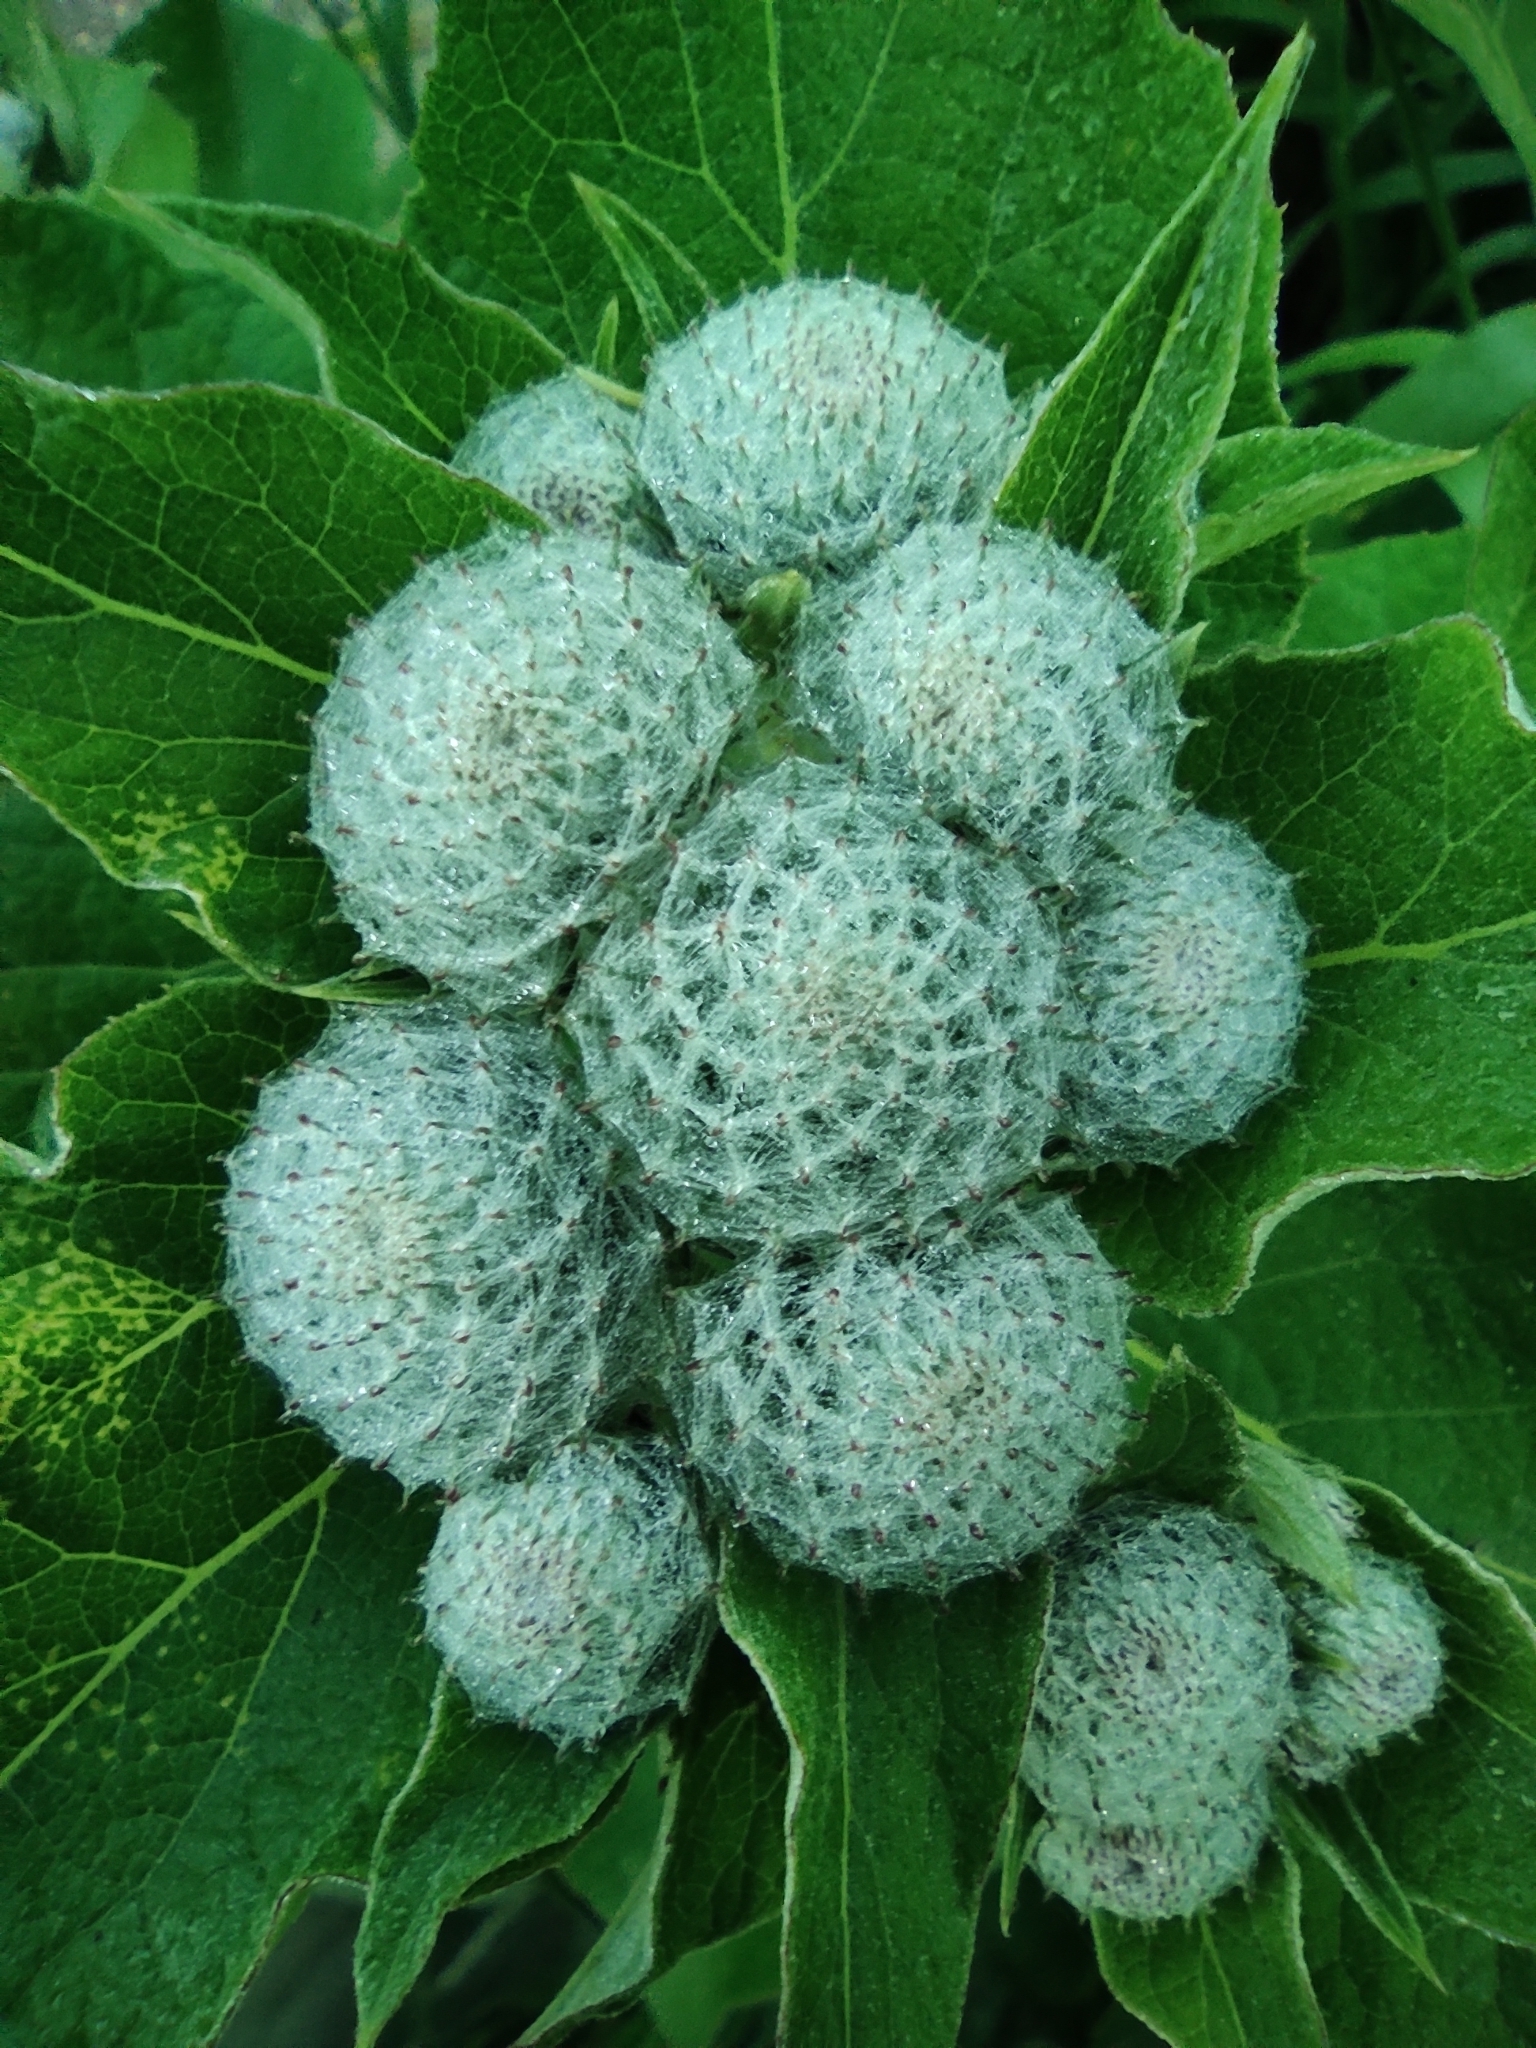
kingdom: Plantae
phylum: Tracheophyta
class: Magnoliopsida
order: Asterales
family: Asteraceae
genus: Arctium
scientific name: Arctium tomentosum
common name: Woolly burdock
